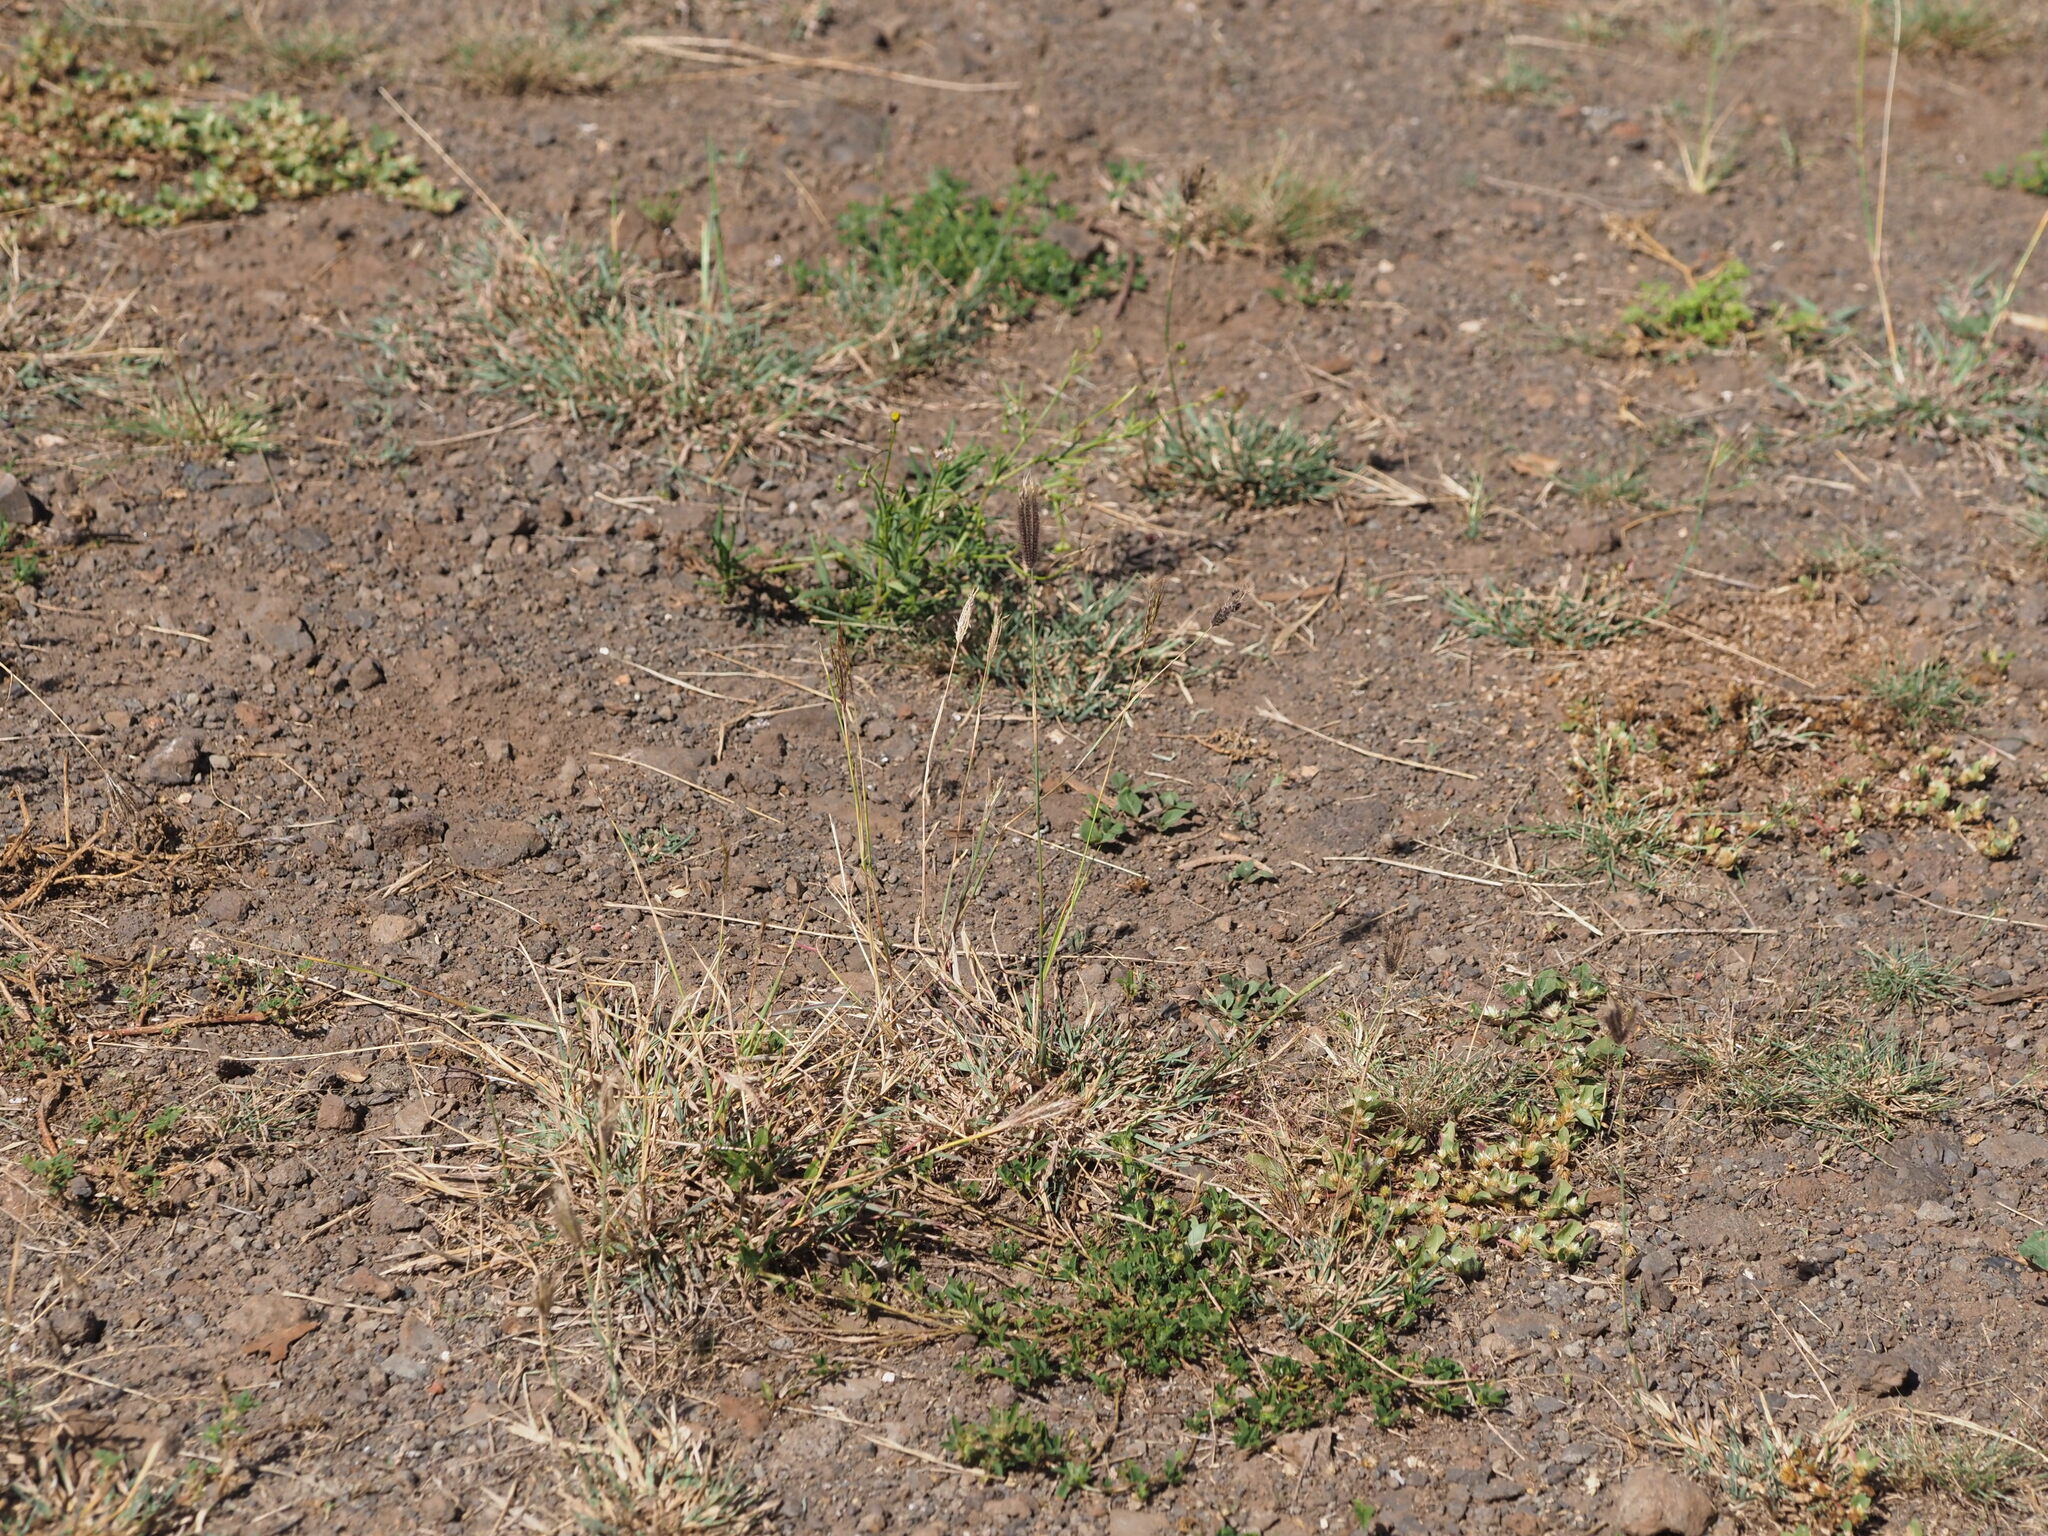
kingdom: Plantae
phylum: Tracheophyta
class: Liliopsida
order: Poales
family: Poaceae
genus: Chloris
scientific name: Chloris barbata
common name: Swollen fingergrass
